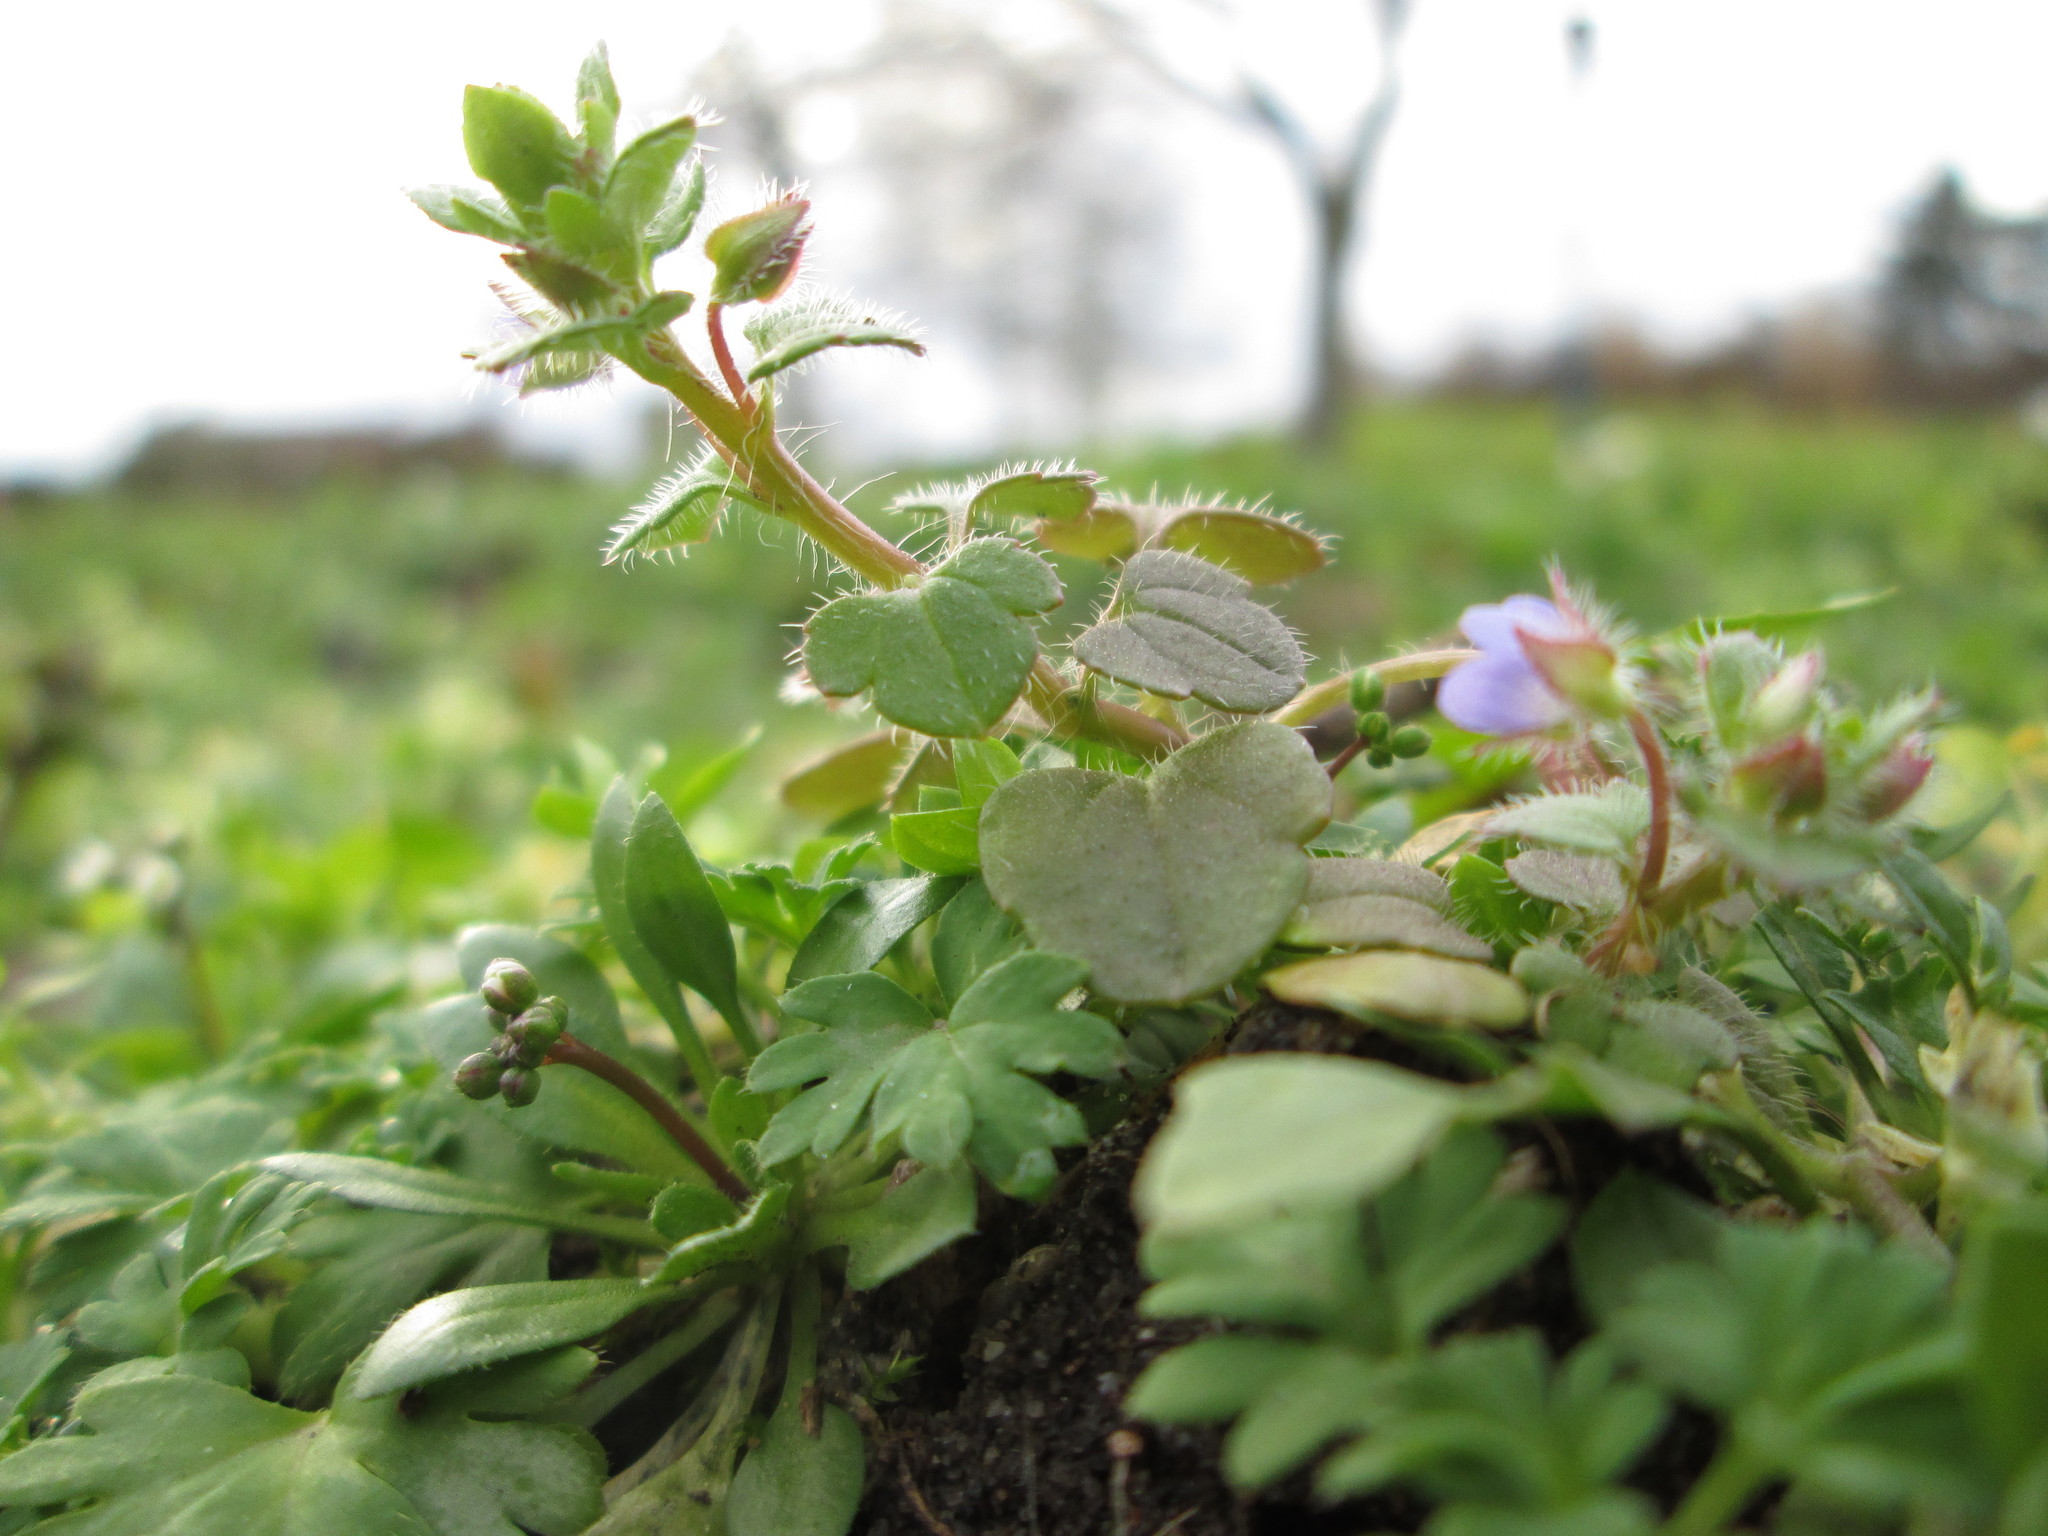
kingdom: Plantae
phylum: Tracheophyta
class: Magnoliopsida
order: Lamiales
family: Plantaginaceae
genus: Veronica
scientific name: Veronica hederifolia
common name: Ivy-leaved speedwell
